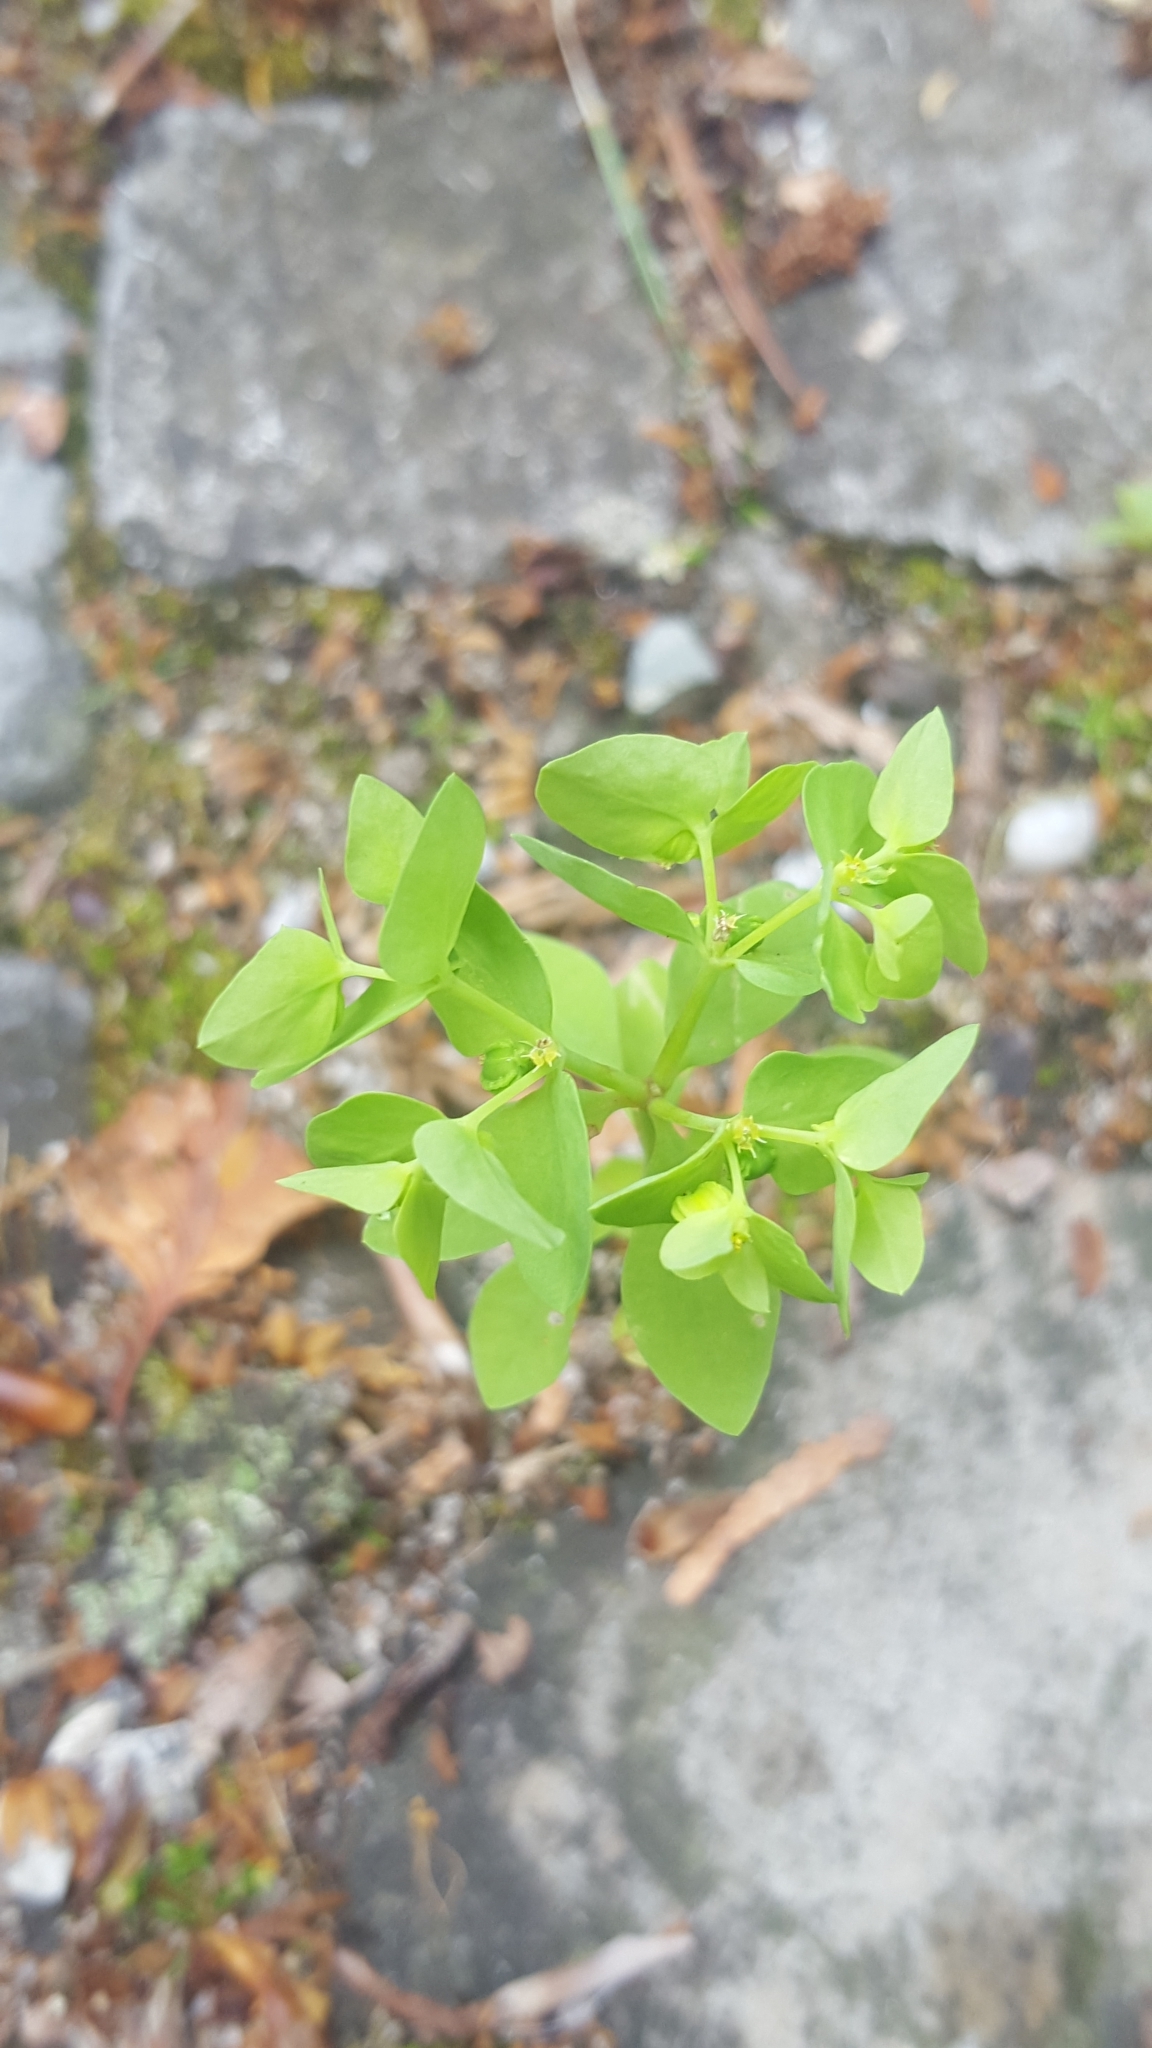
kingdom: Plantae
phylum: Tracheophyta
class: Magnoliopsida
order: Malpighiales
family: Euphorbiaceae
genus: Euphorbia
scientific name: Euphorbia peplus
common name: Petty spurge
